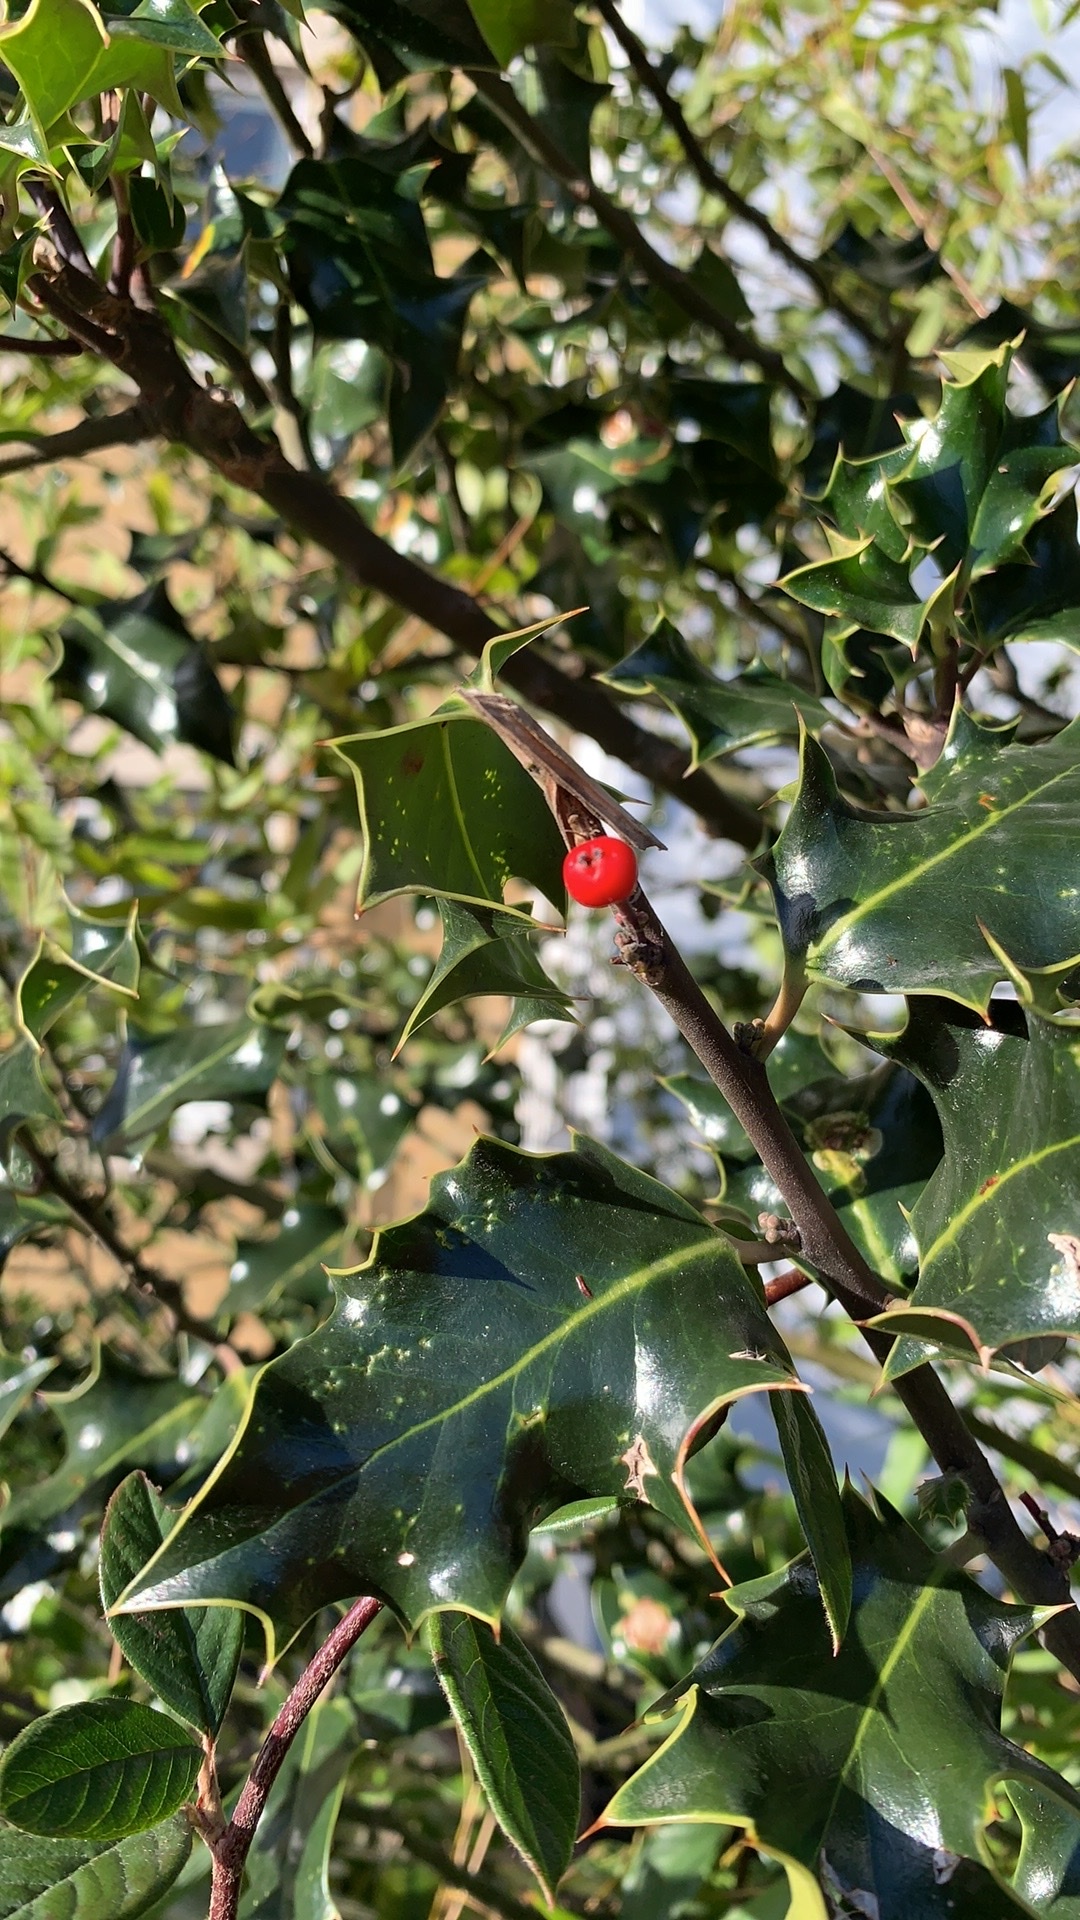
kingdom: Plantae
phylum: Tracheophyta
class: Magnoliopsida
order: Aquifoliales
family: Aquifoliaceae
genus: Ilex
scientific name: Ilex aquifolium
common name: English holly
